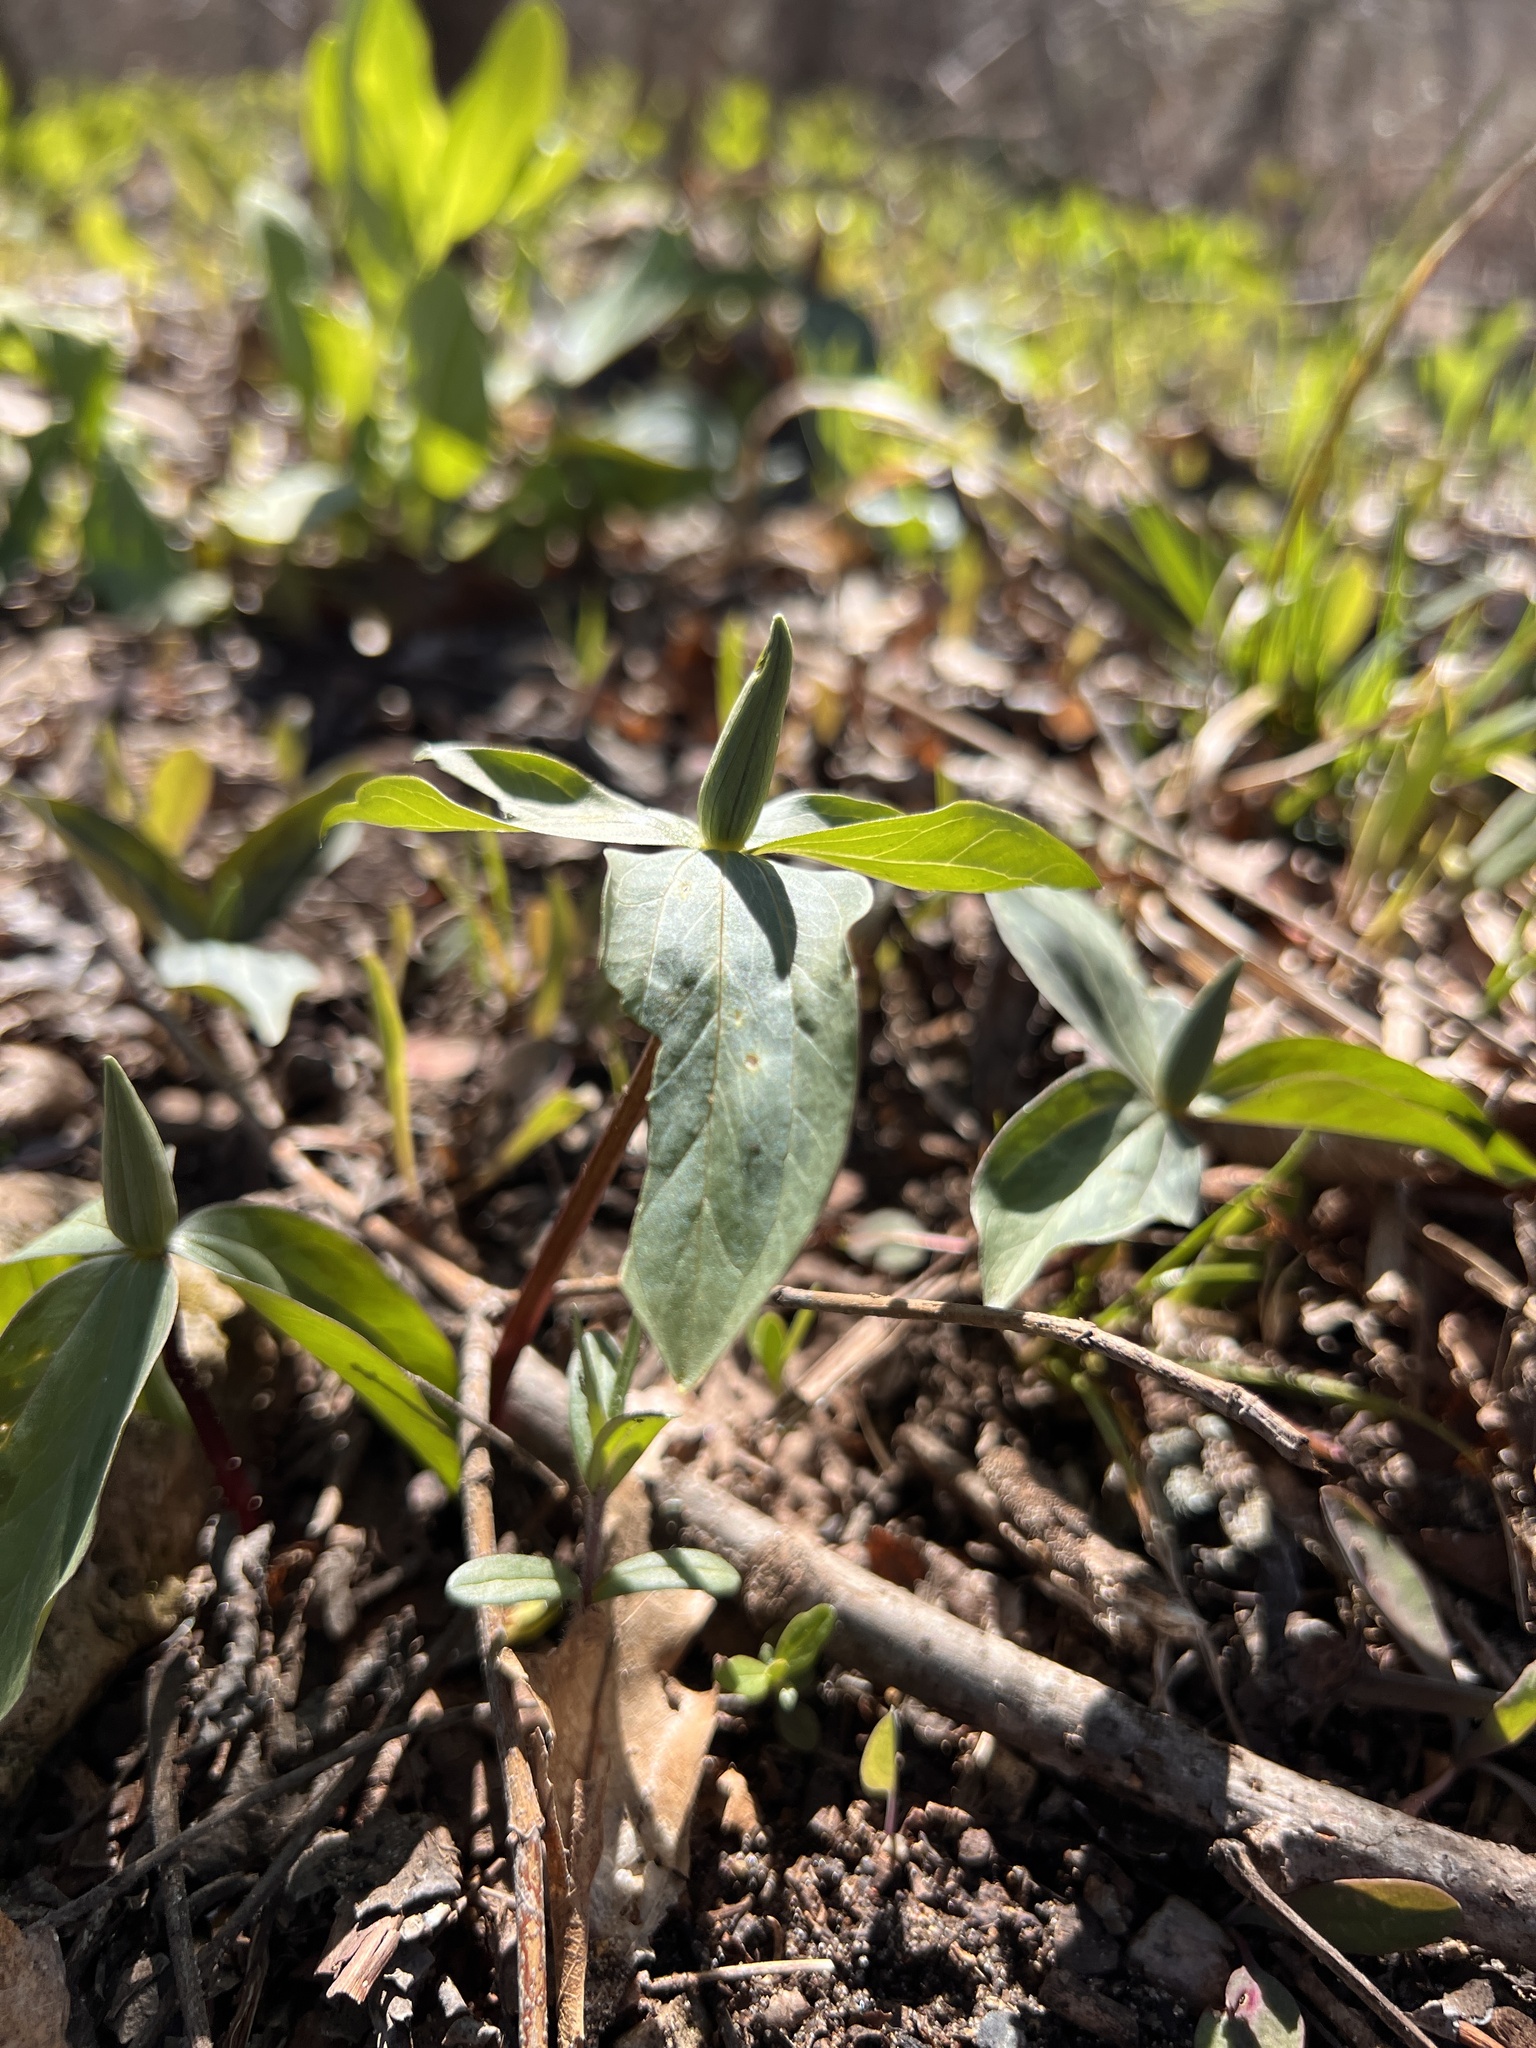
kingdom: Plantae
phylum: Tracheophyta
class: Liliopsida
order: Liliales
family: Melanthiaceae
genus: Trillium
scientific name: Trillium sessile
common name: Sessile trillium
